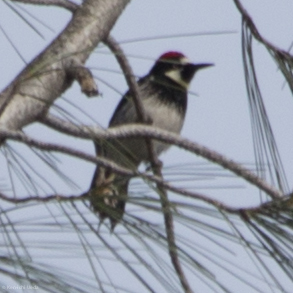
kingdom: Animalia
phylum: Chordata
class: Aves
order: Piciformes
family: Picidae
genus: Melanerpes
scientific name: Melanerpes formicivorus
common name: Acorn woodpecker
